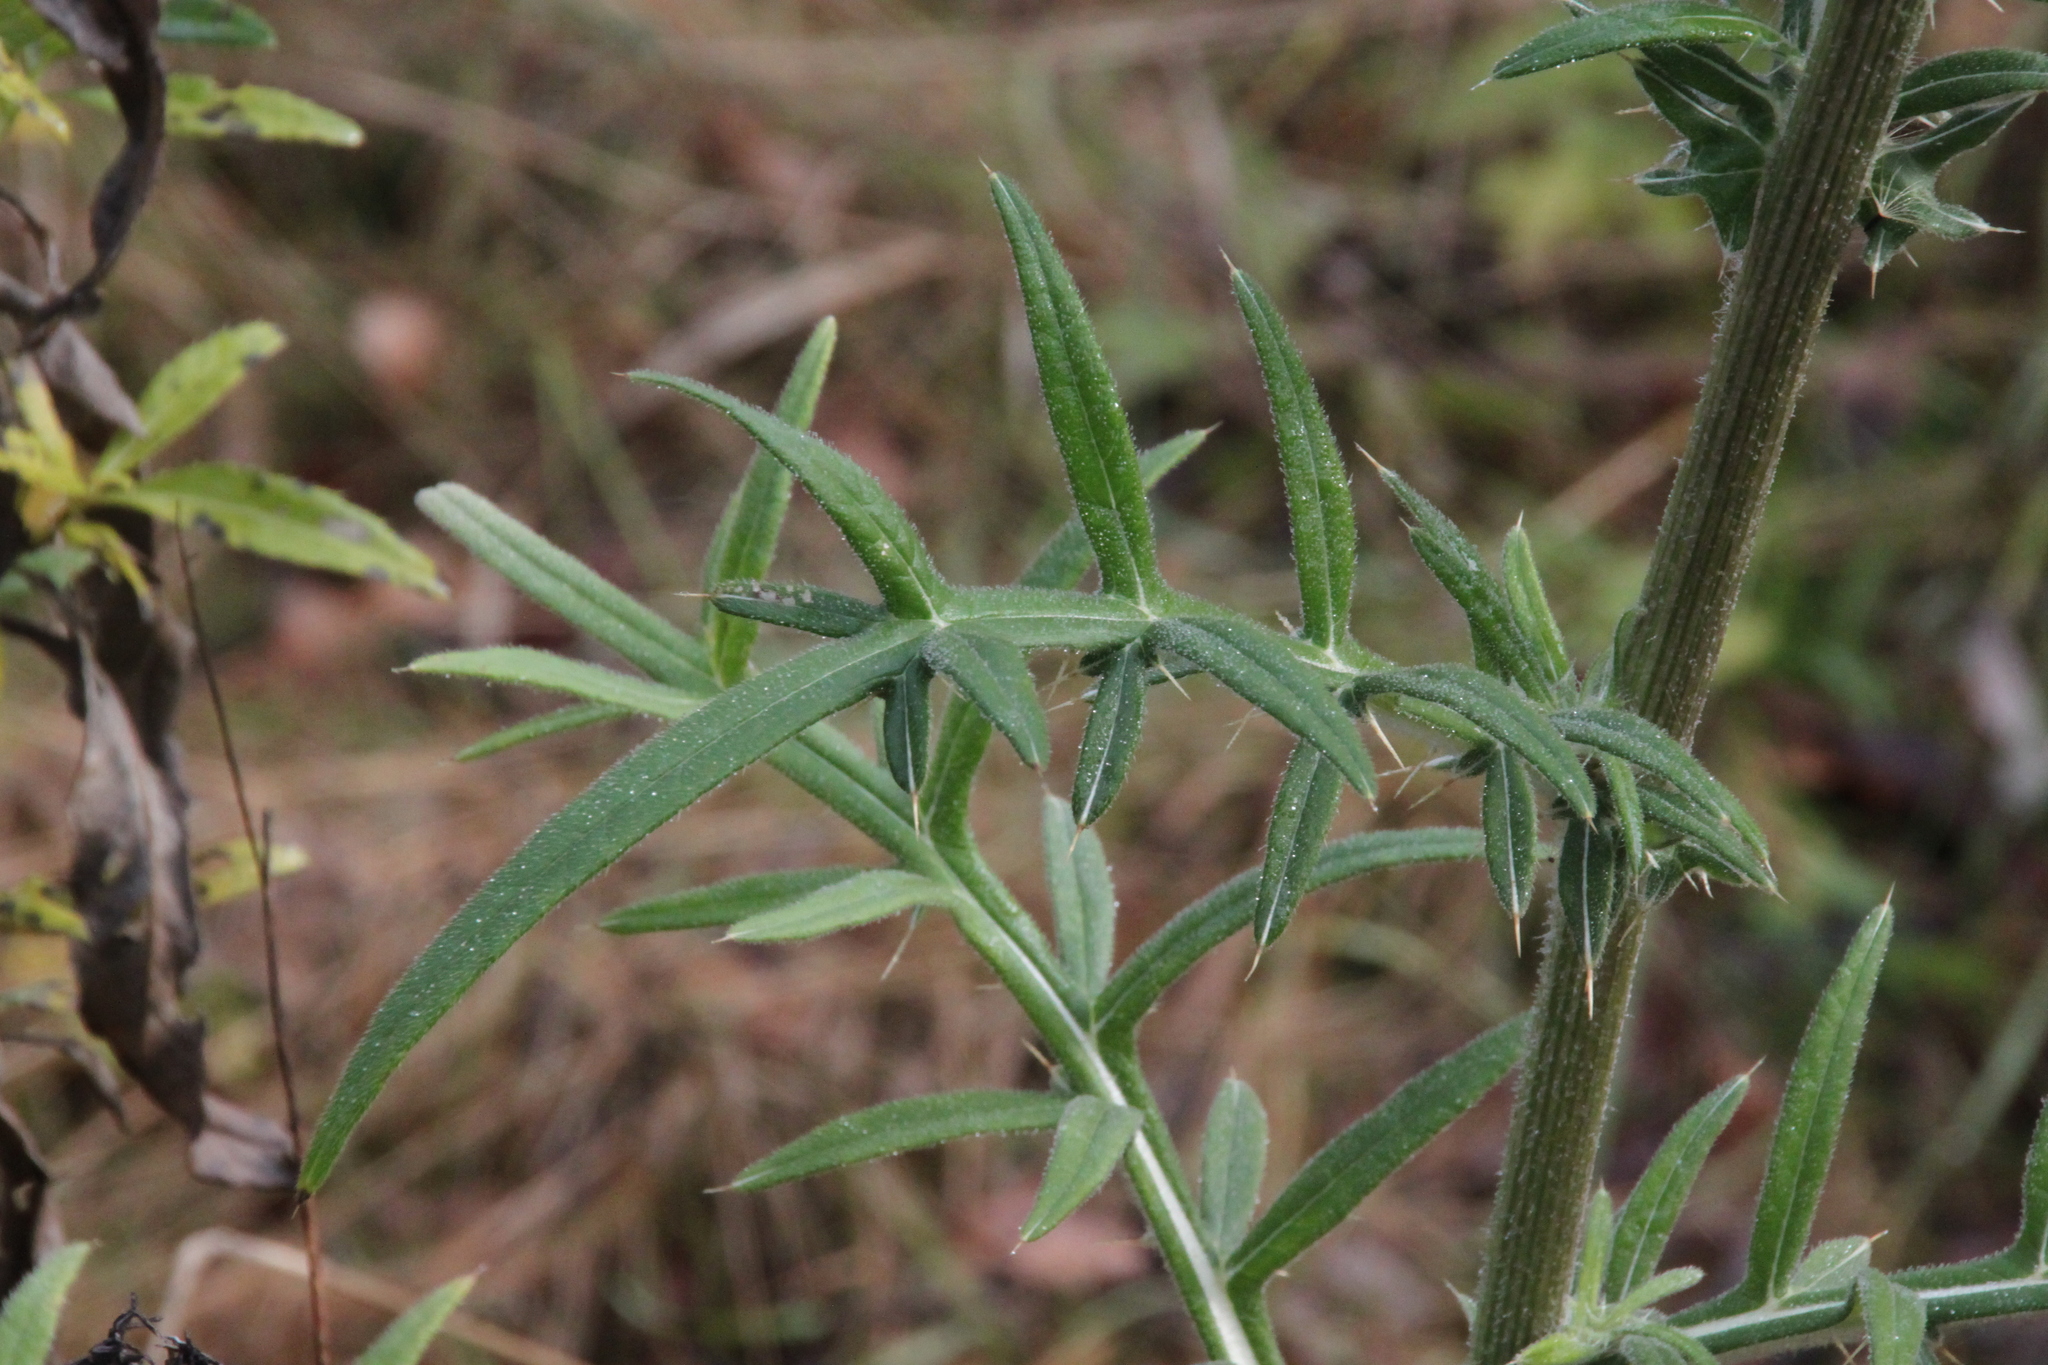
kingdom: Plantae
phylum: Tracheophyta
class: Magnoliopsida
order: Asterales
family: Asteraceae
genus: Lophiolepis
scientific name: Lophiolepis decussata
